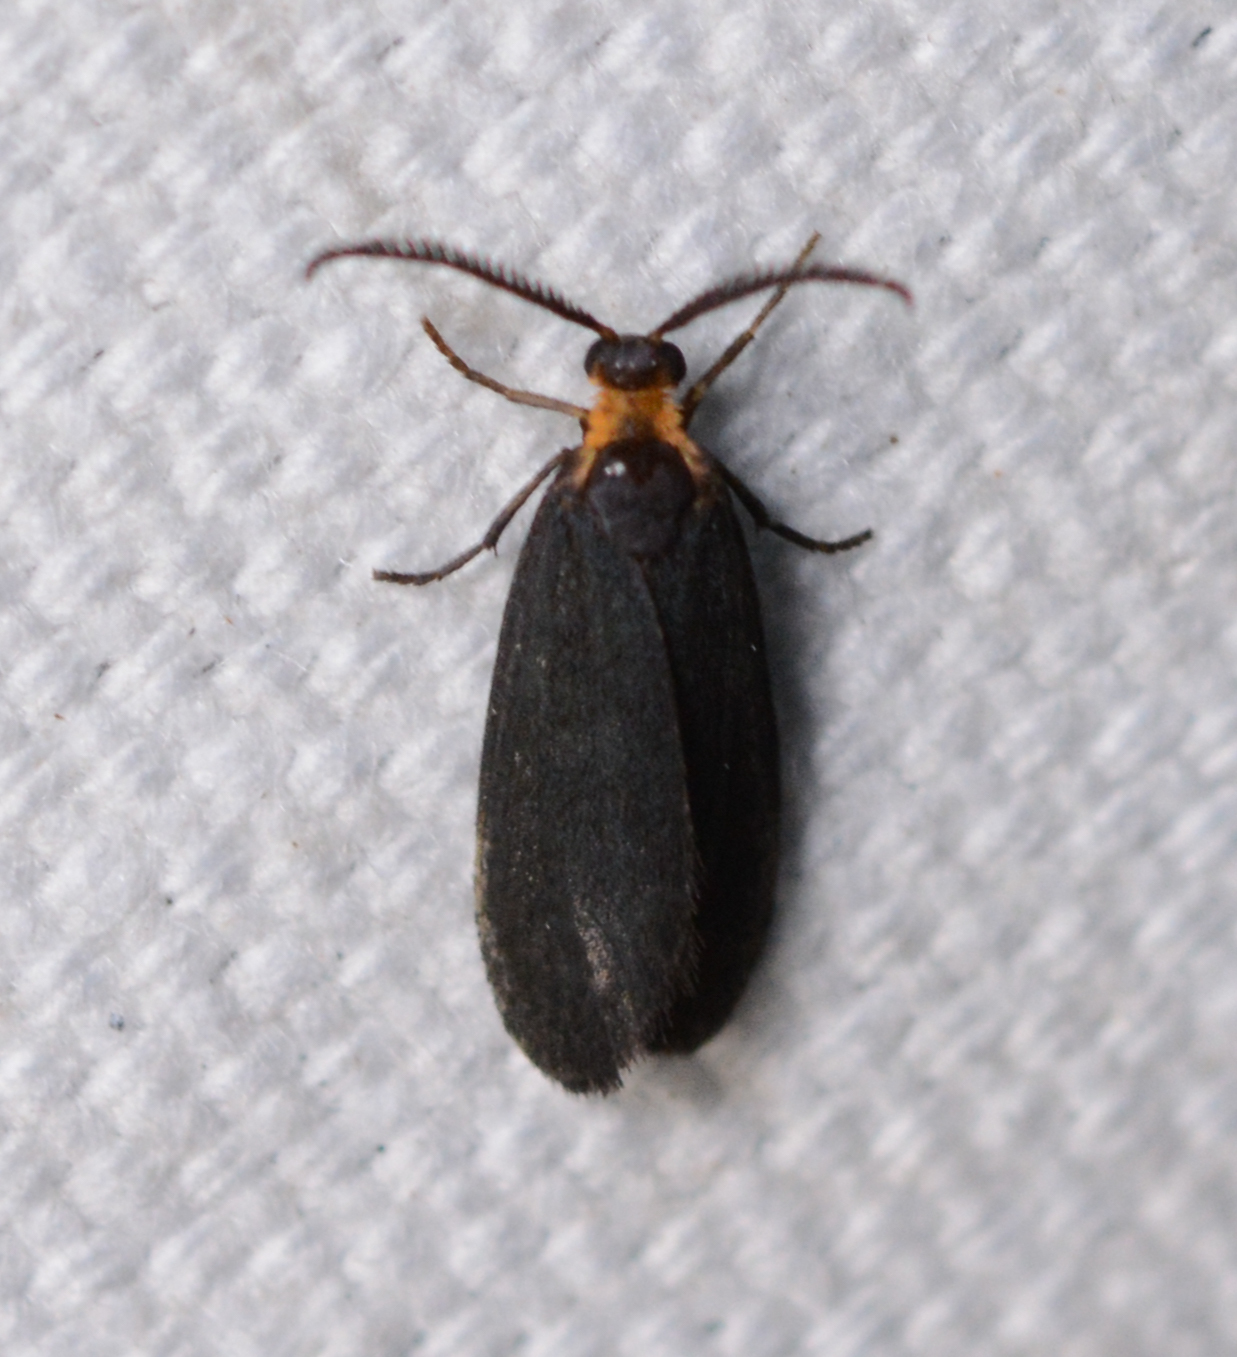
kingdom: Animalia
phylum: Arthropoda
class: Insecta
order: Lepidoptera
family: Zygaenidae
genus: Acoloithus
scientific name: Acoloithus falsarius
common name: Clemens' false skeletonizer
